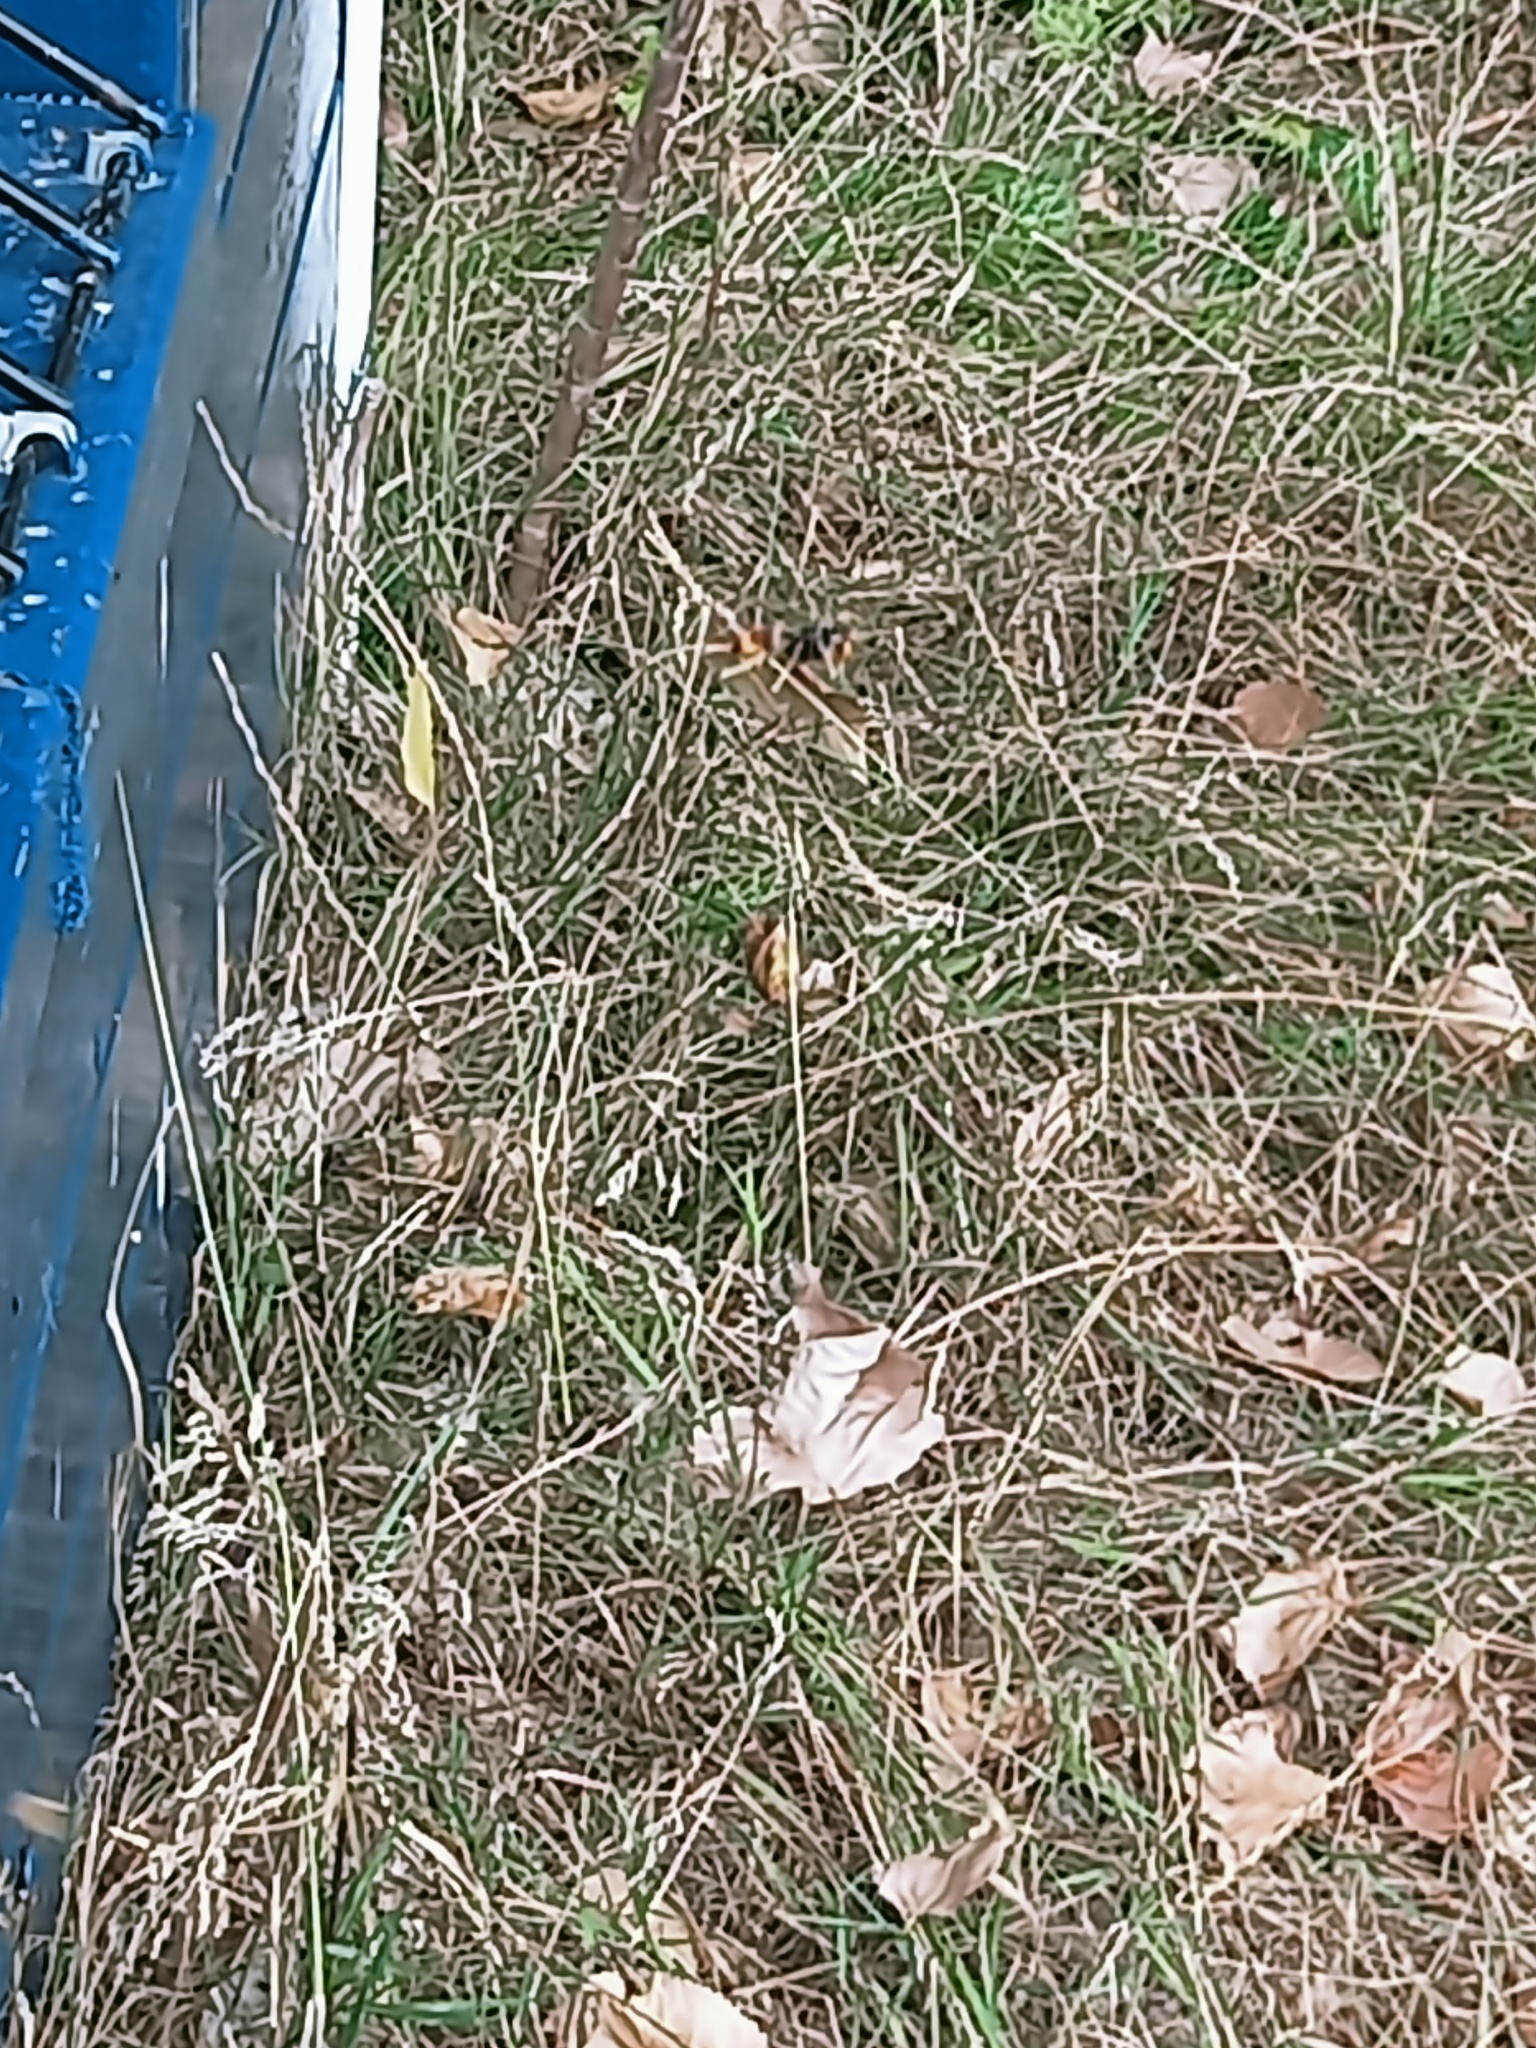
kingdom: Animalia
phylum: Arthropoda
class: Insecta
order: Hymenoptera
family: Vespidae
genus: Vespa
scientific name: Vespa velutina
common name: Asian hornet
